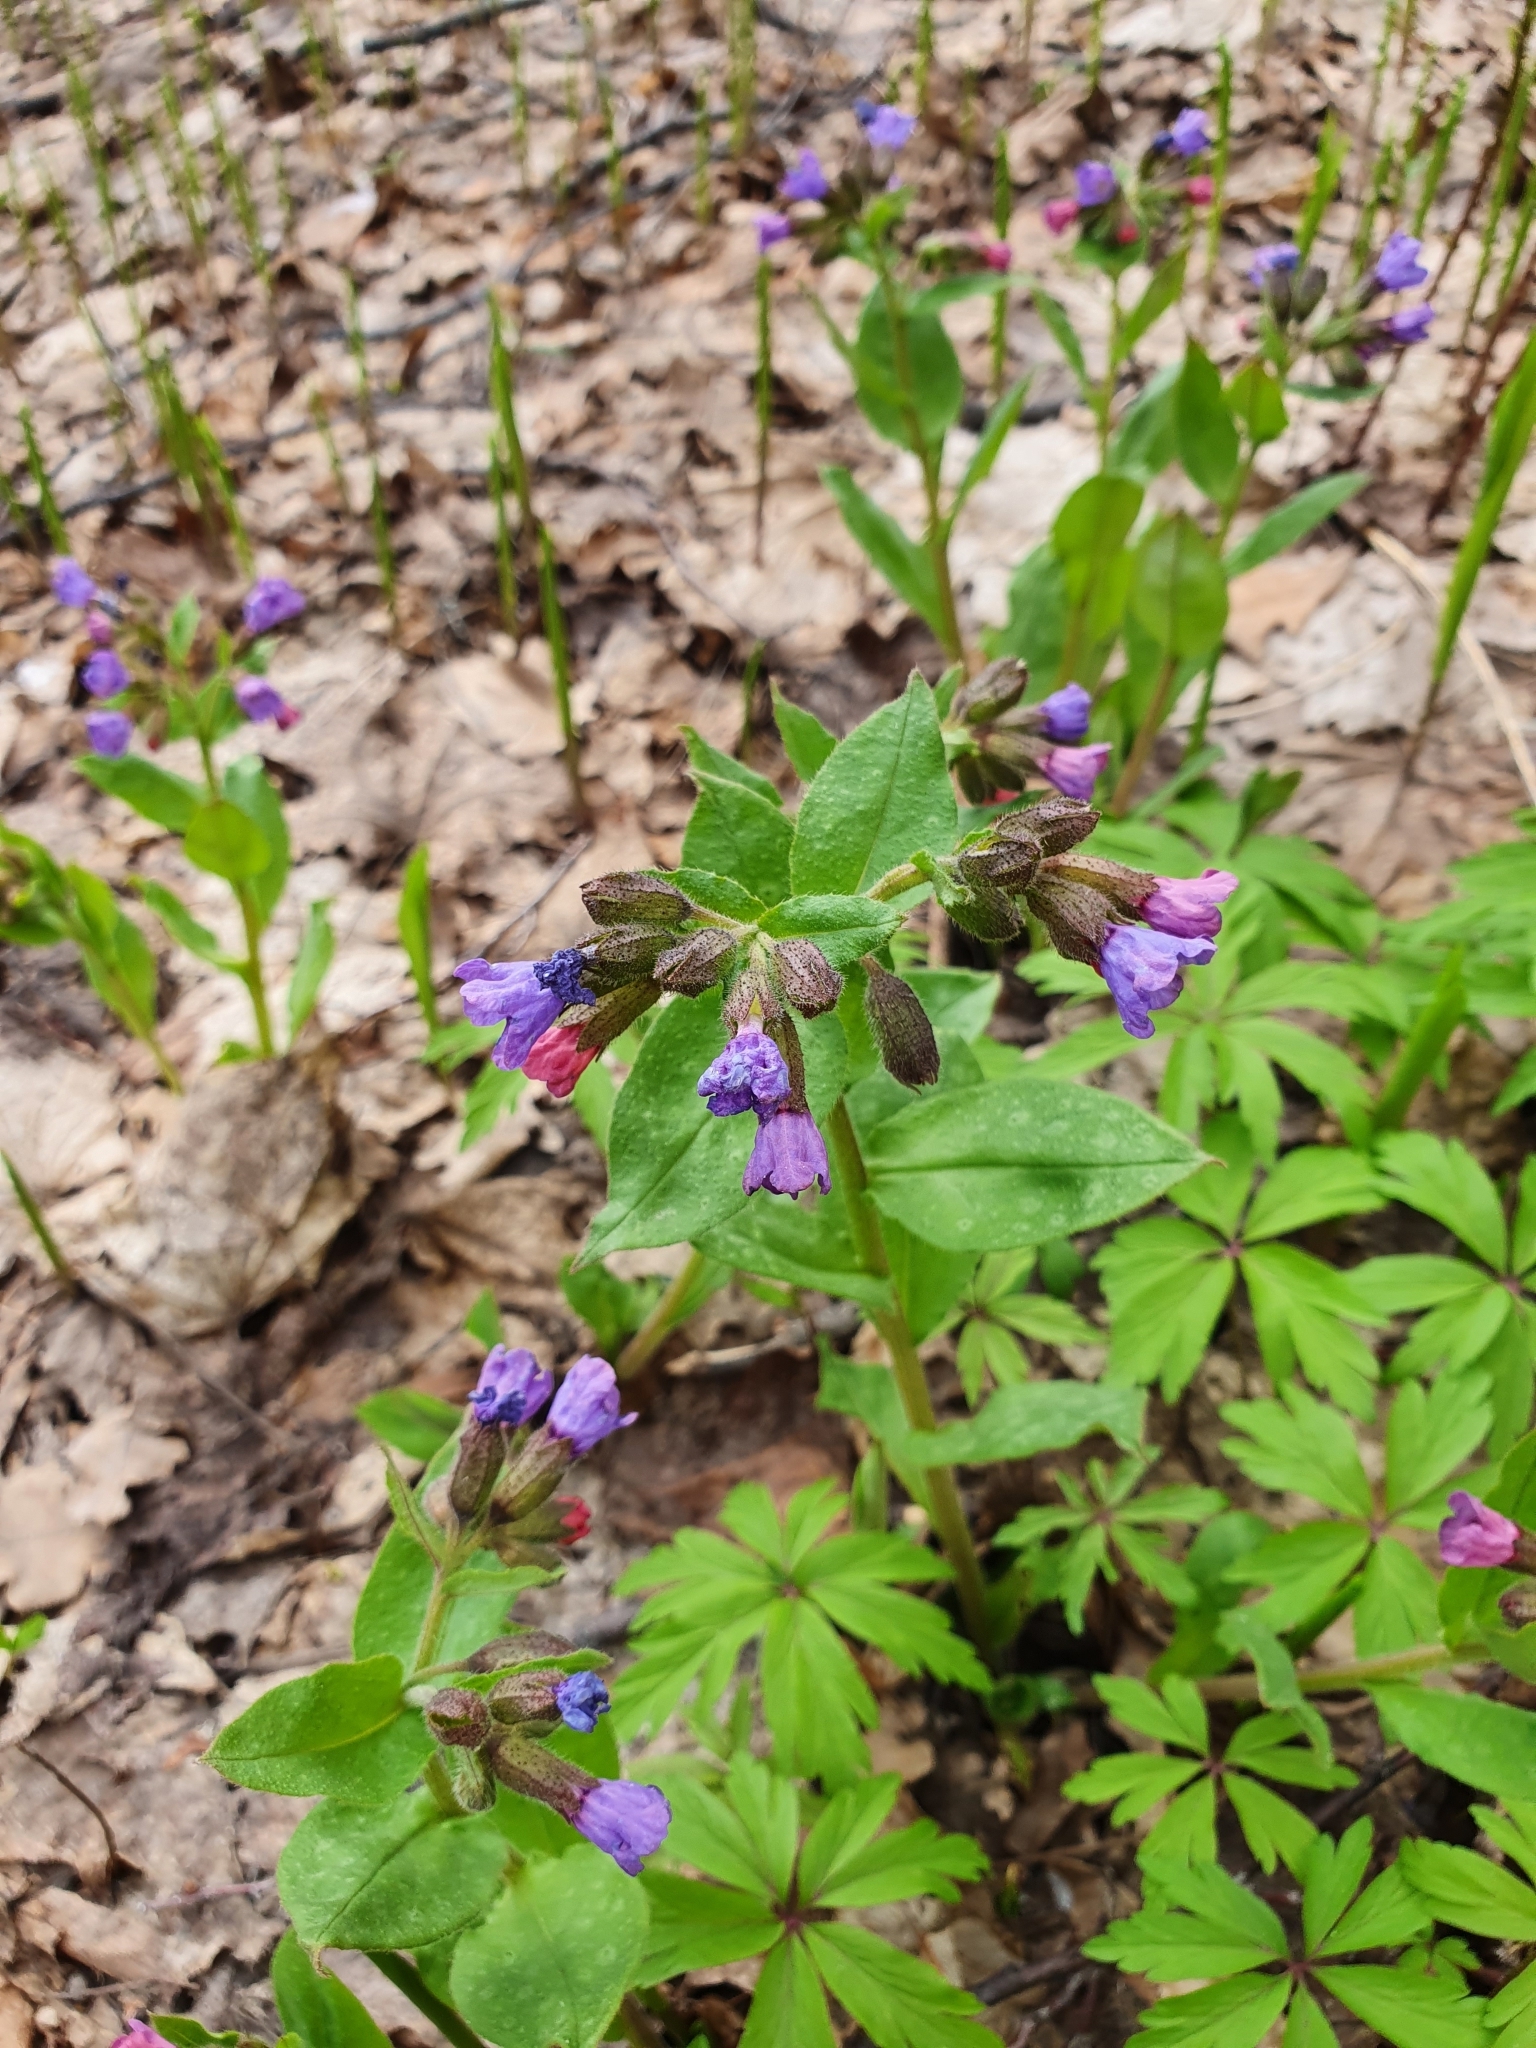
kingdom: Plantae
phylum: Tracheophyta
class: Magnoliopsida
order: Boraginales
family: Boraginaceae
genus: Pulmonaria
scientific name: Pulmonaria obscura
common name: Suffolk lungwort
